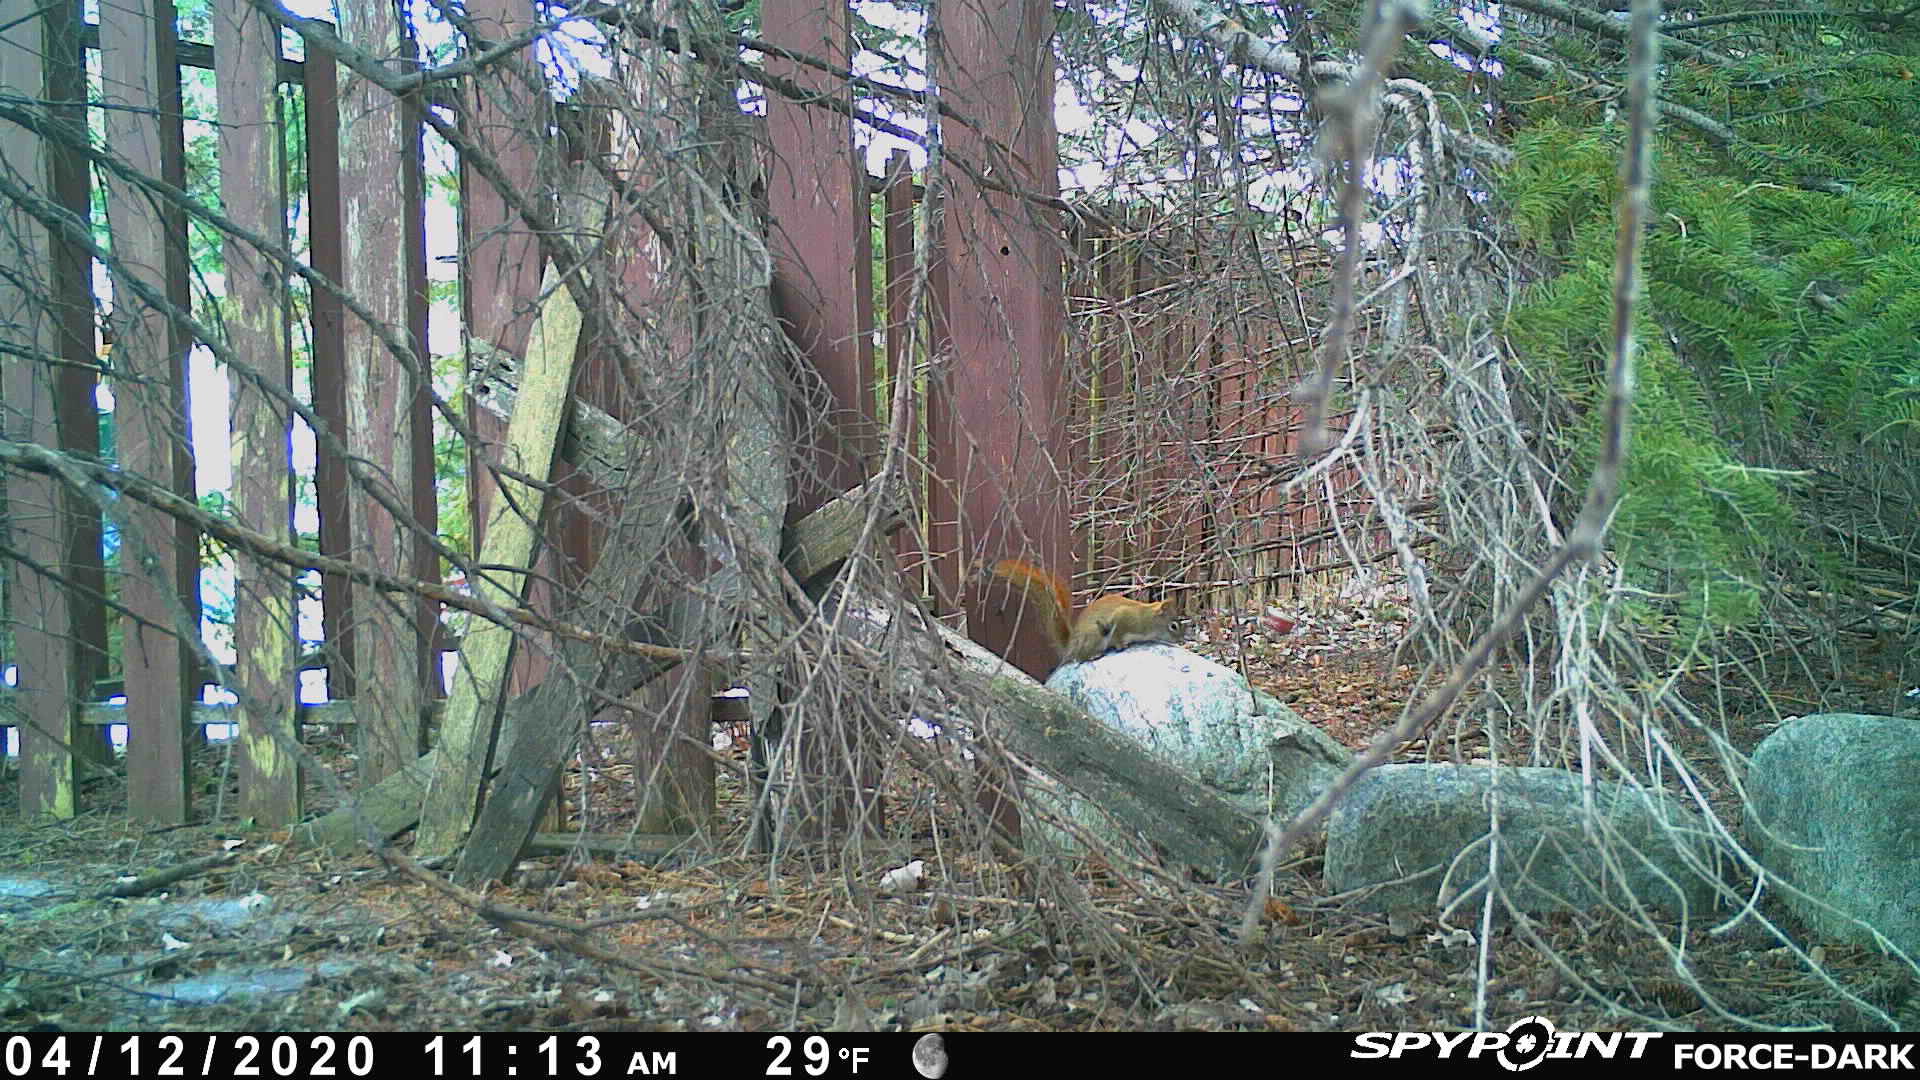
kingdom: Animalia
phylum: Chordata
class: Mammalia
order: Rodentia
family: Sciuridae
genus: Tamiasciurus
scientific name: Tamiasciurus hudsonicus
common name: Red squirrel
